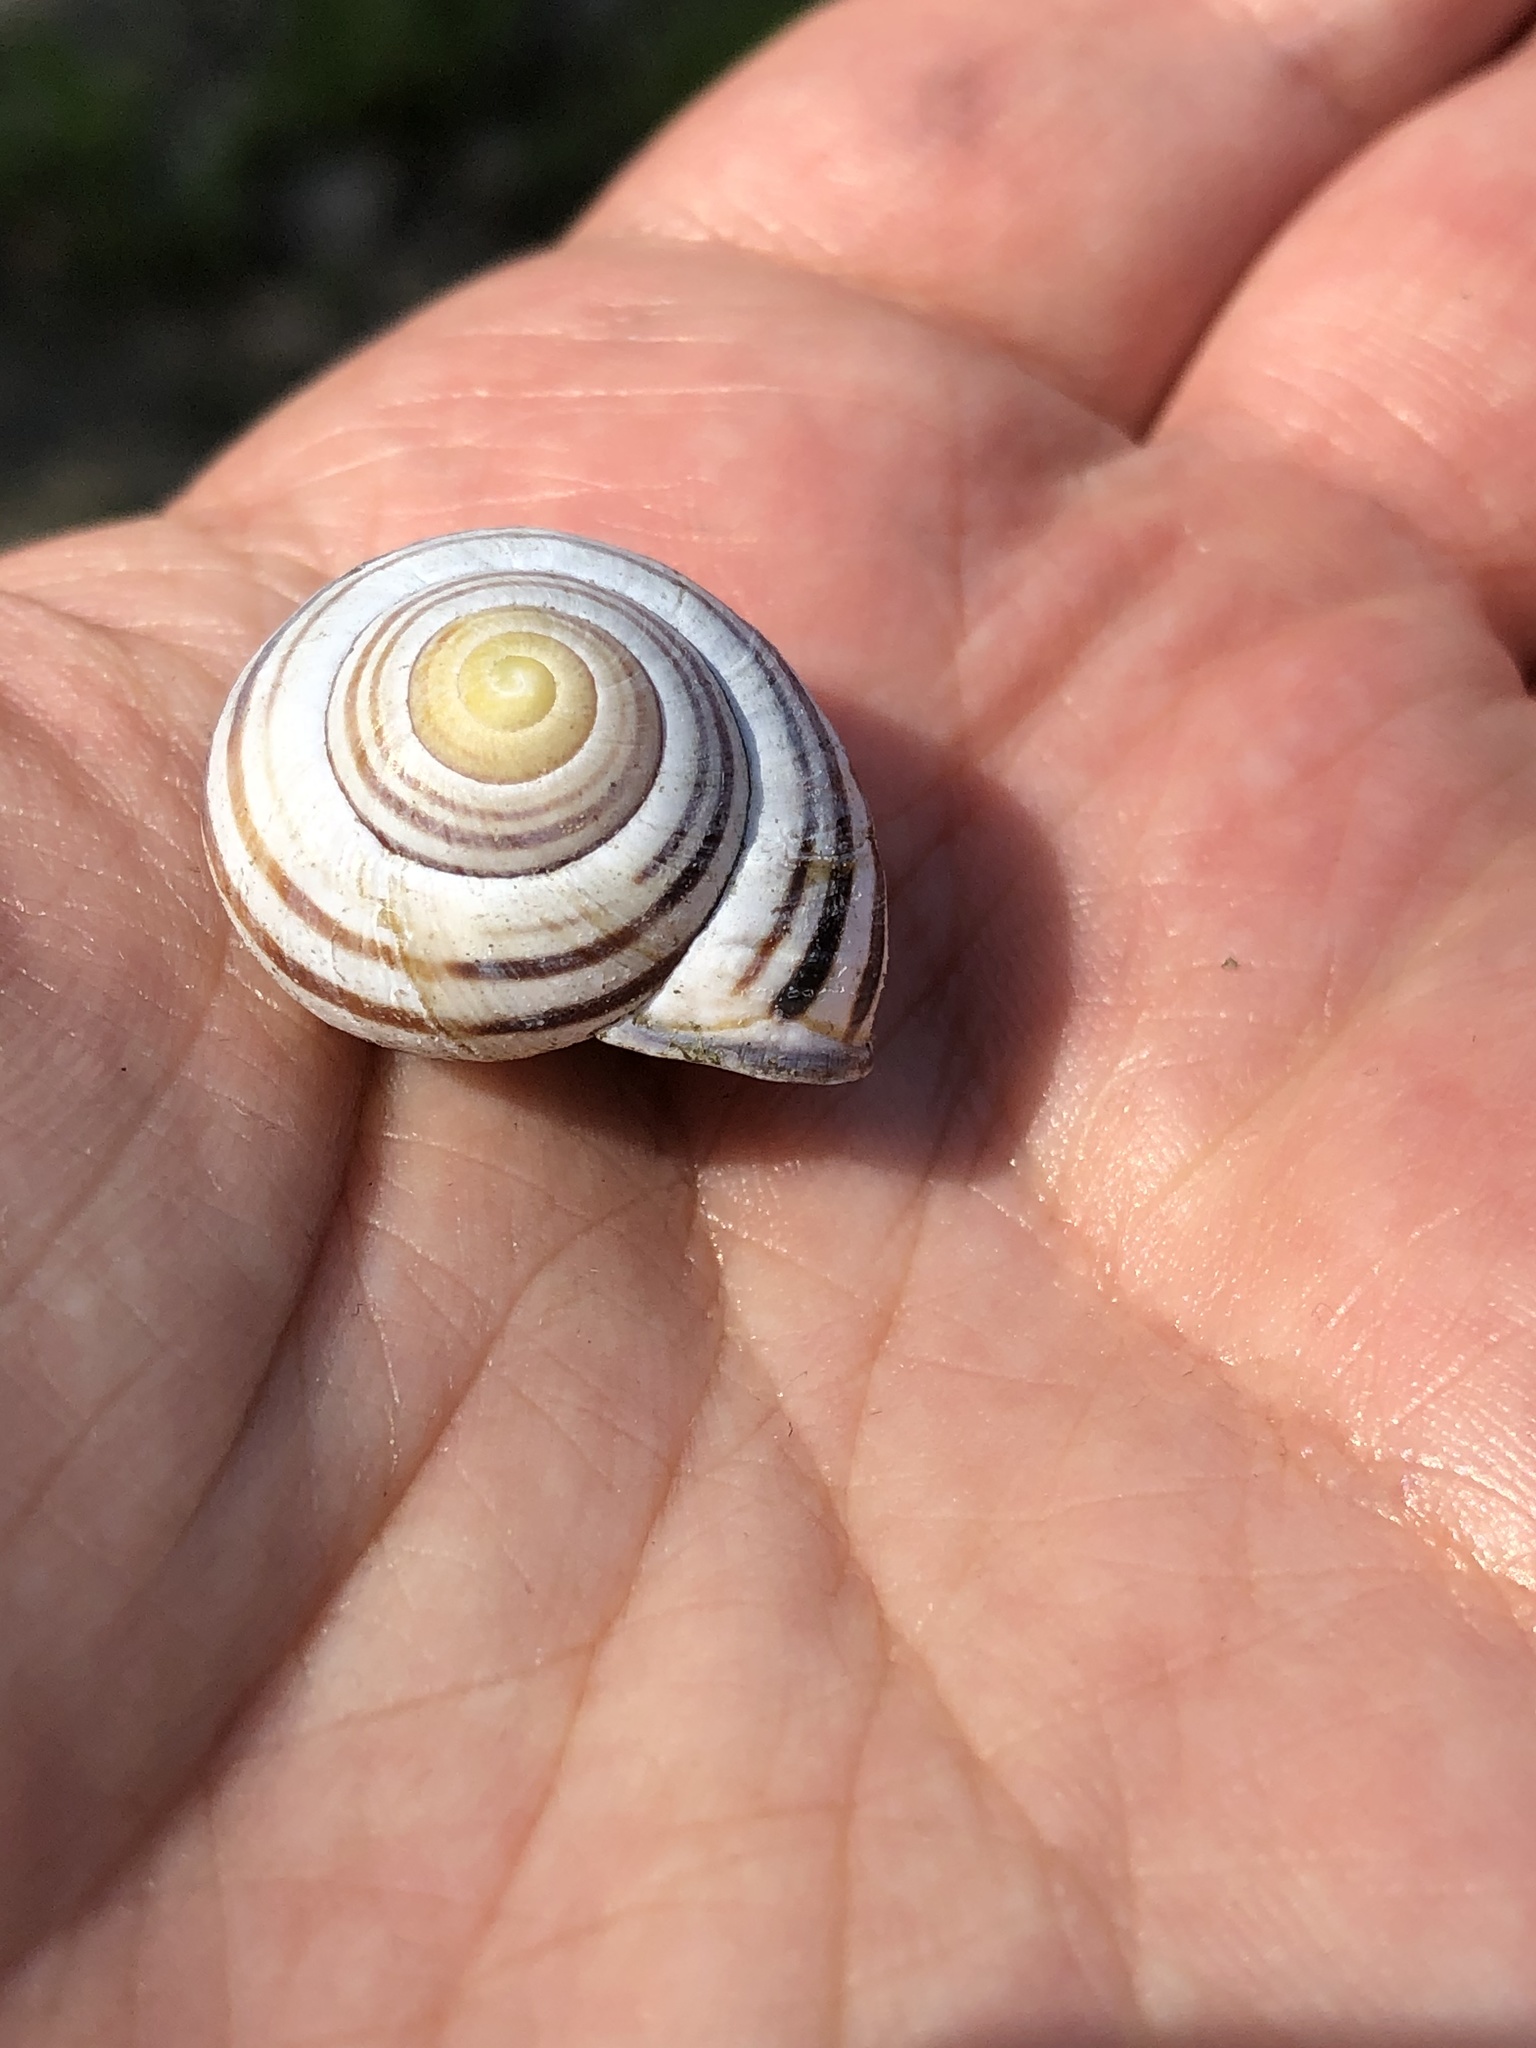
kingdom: Animalia
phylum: Mollusca
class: Gastropoda
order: Stylommatophora
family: Helicidae
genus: Cepaea
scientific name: Cepaea nemoralis
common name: Grovesnail
